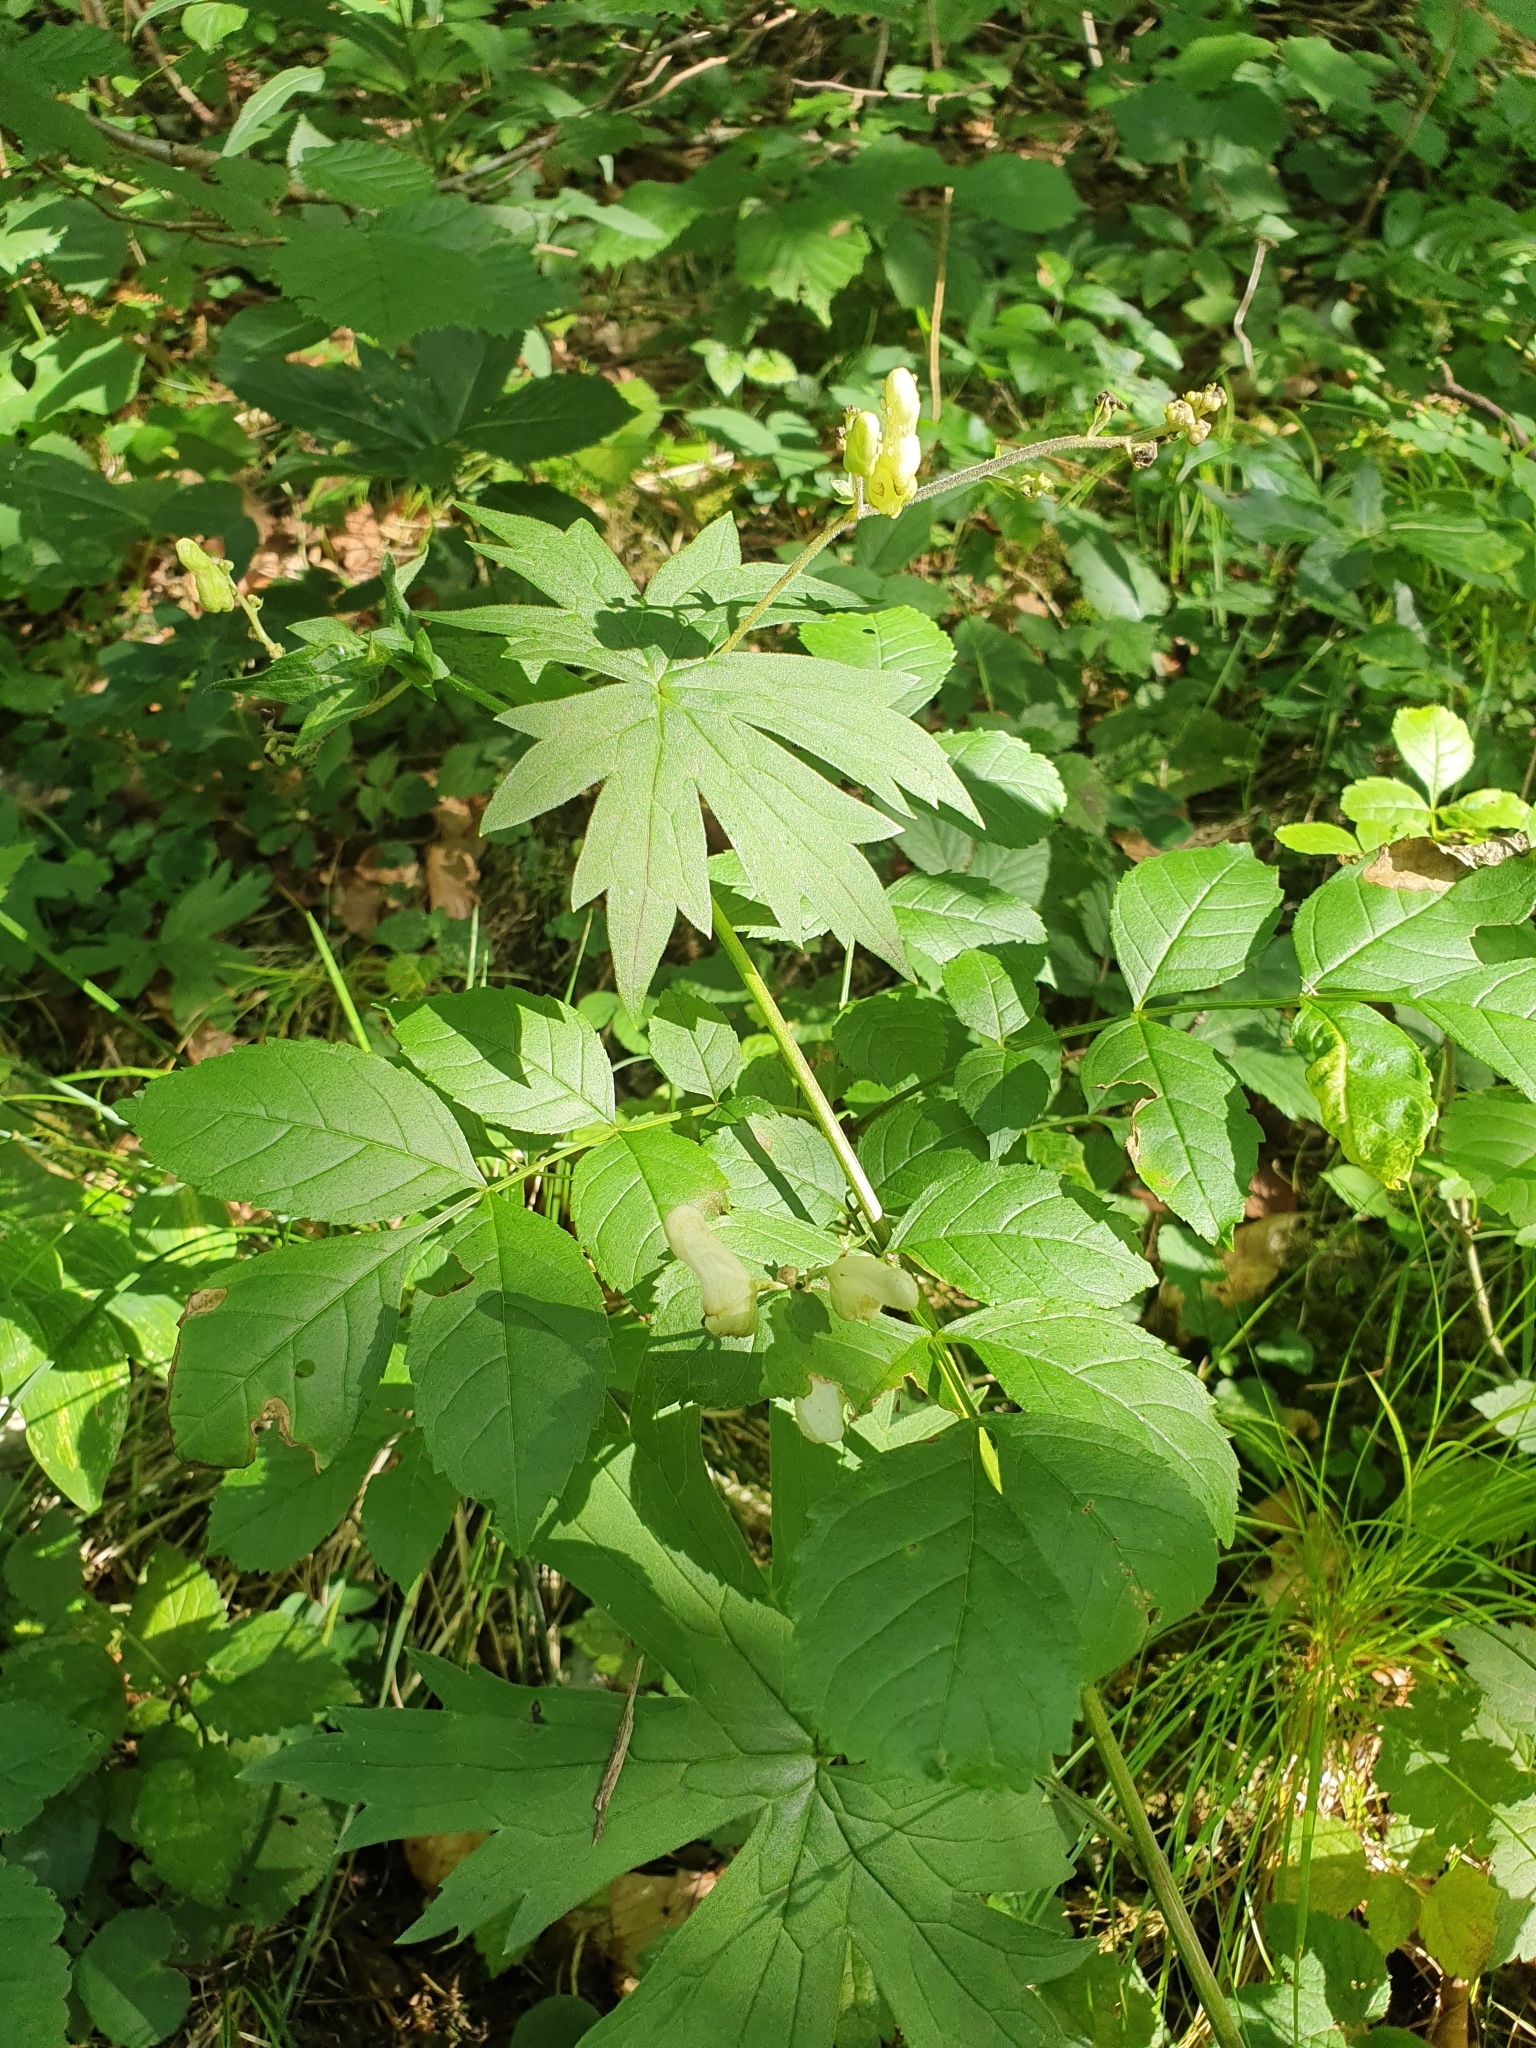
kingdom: Plantae
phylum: Tracheophyta
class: Magnoliopsida
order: Ranunculales
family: Ranunculaceae
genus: Aconitum
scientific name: Aconitum lycoctonum
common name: Wolf's-bane
